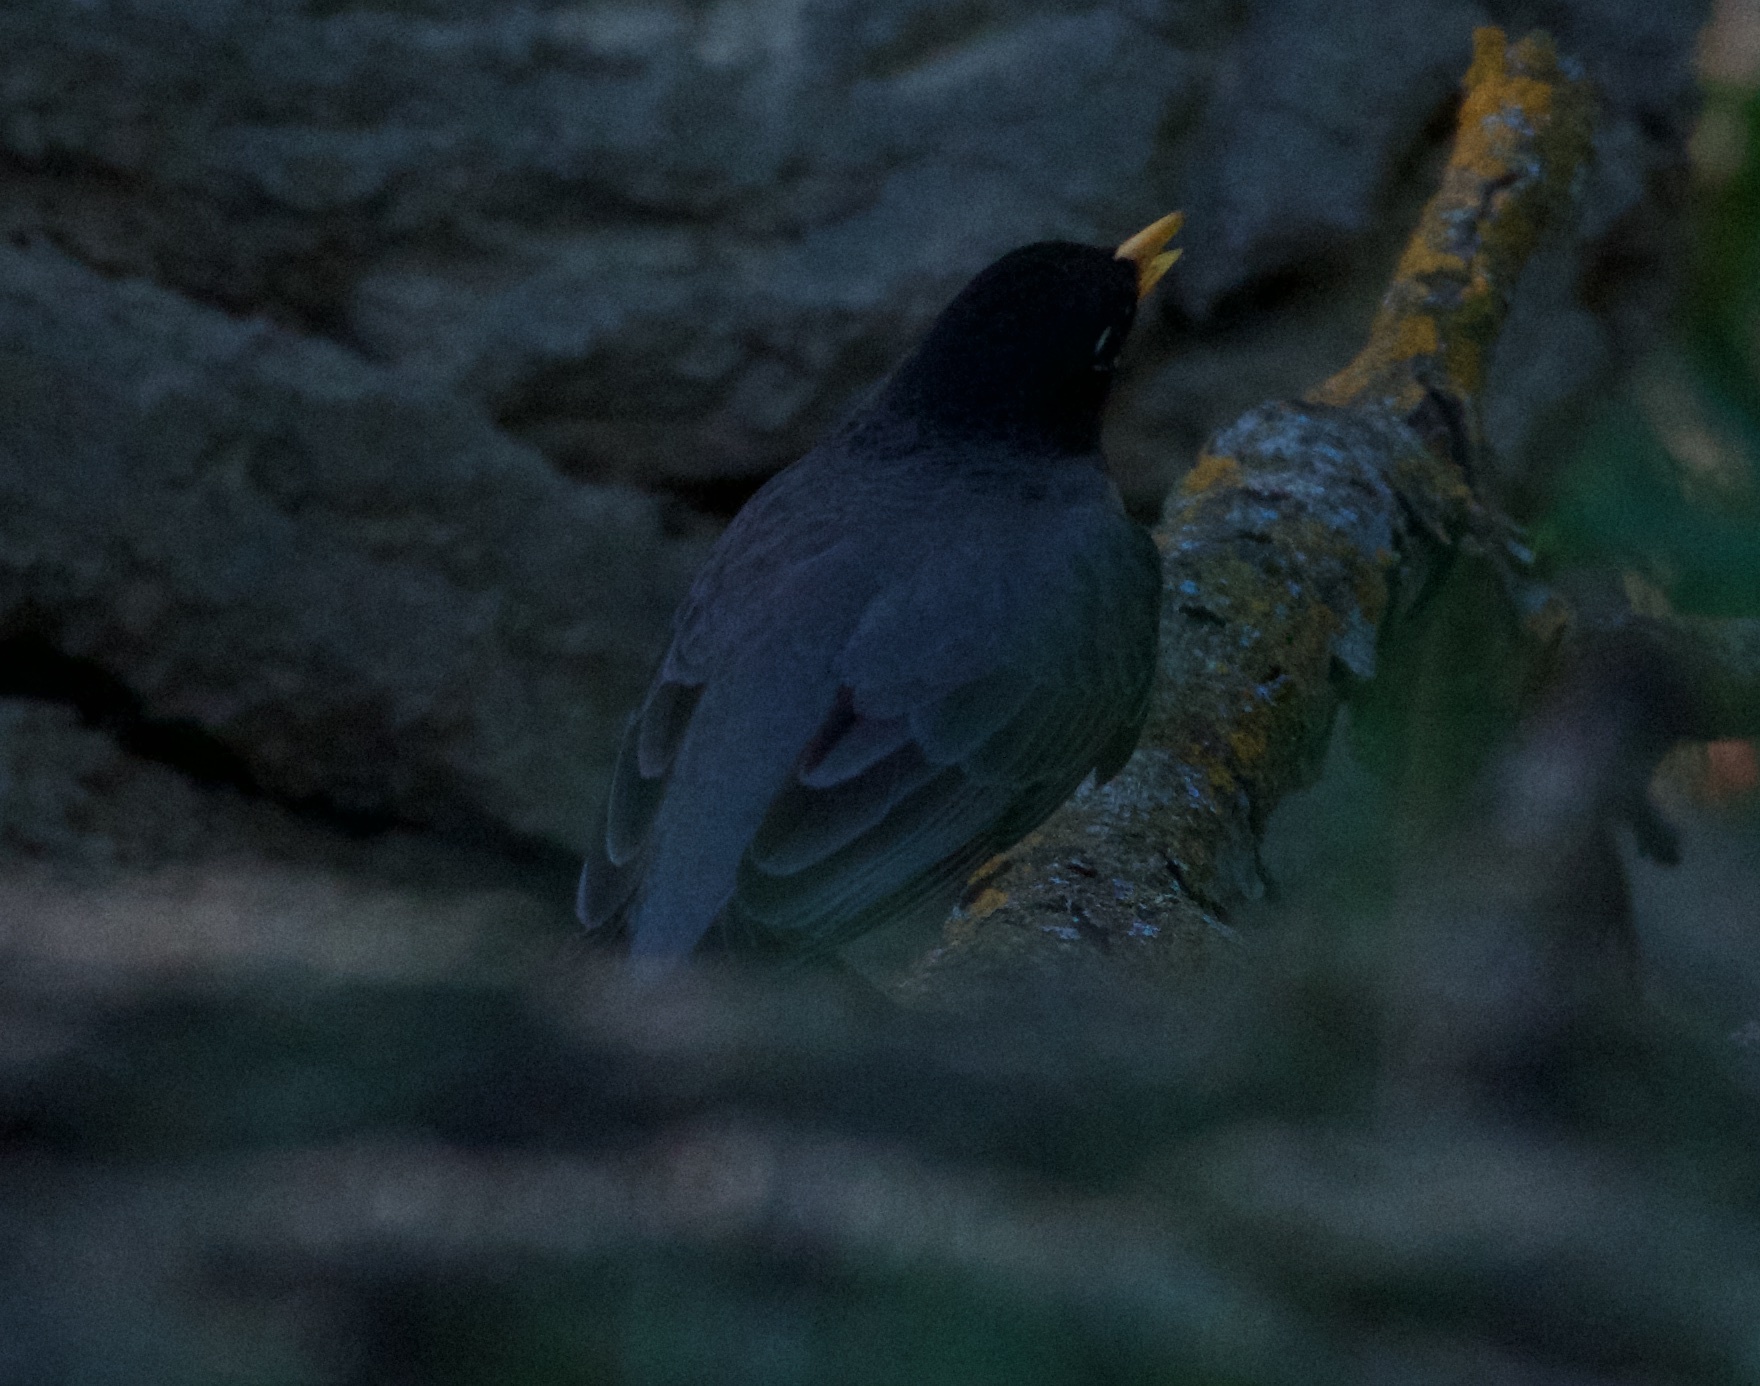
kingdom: Animalia
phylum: Chordata
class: Aves
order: Passeriformes
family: Turdidae
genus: Turdus
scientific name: Turdus migratorius
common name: American robin
